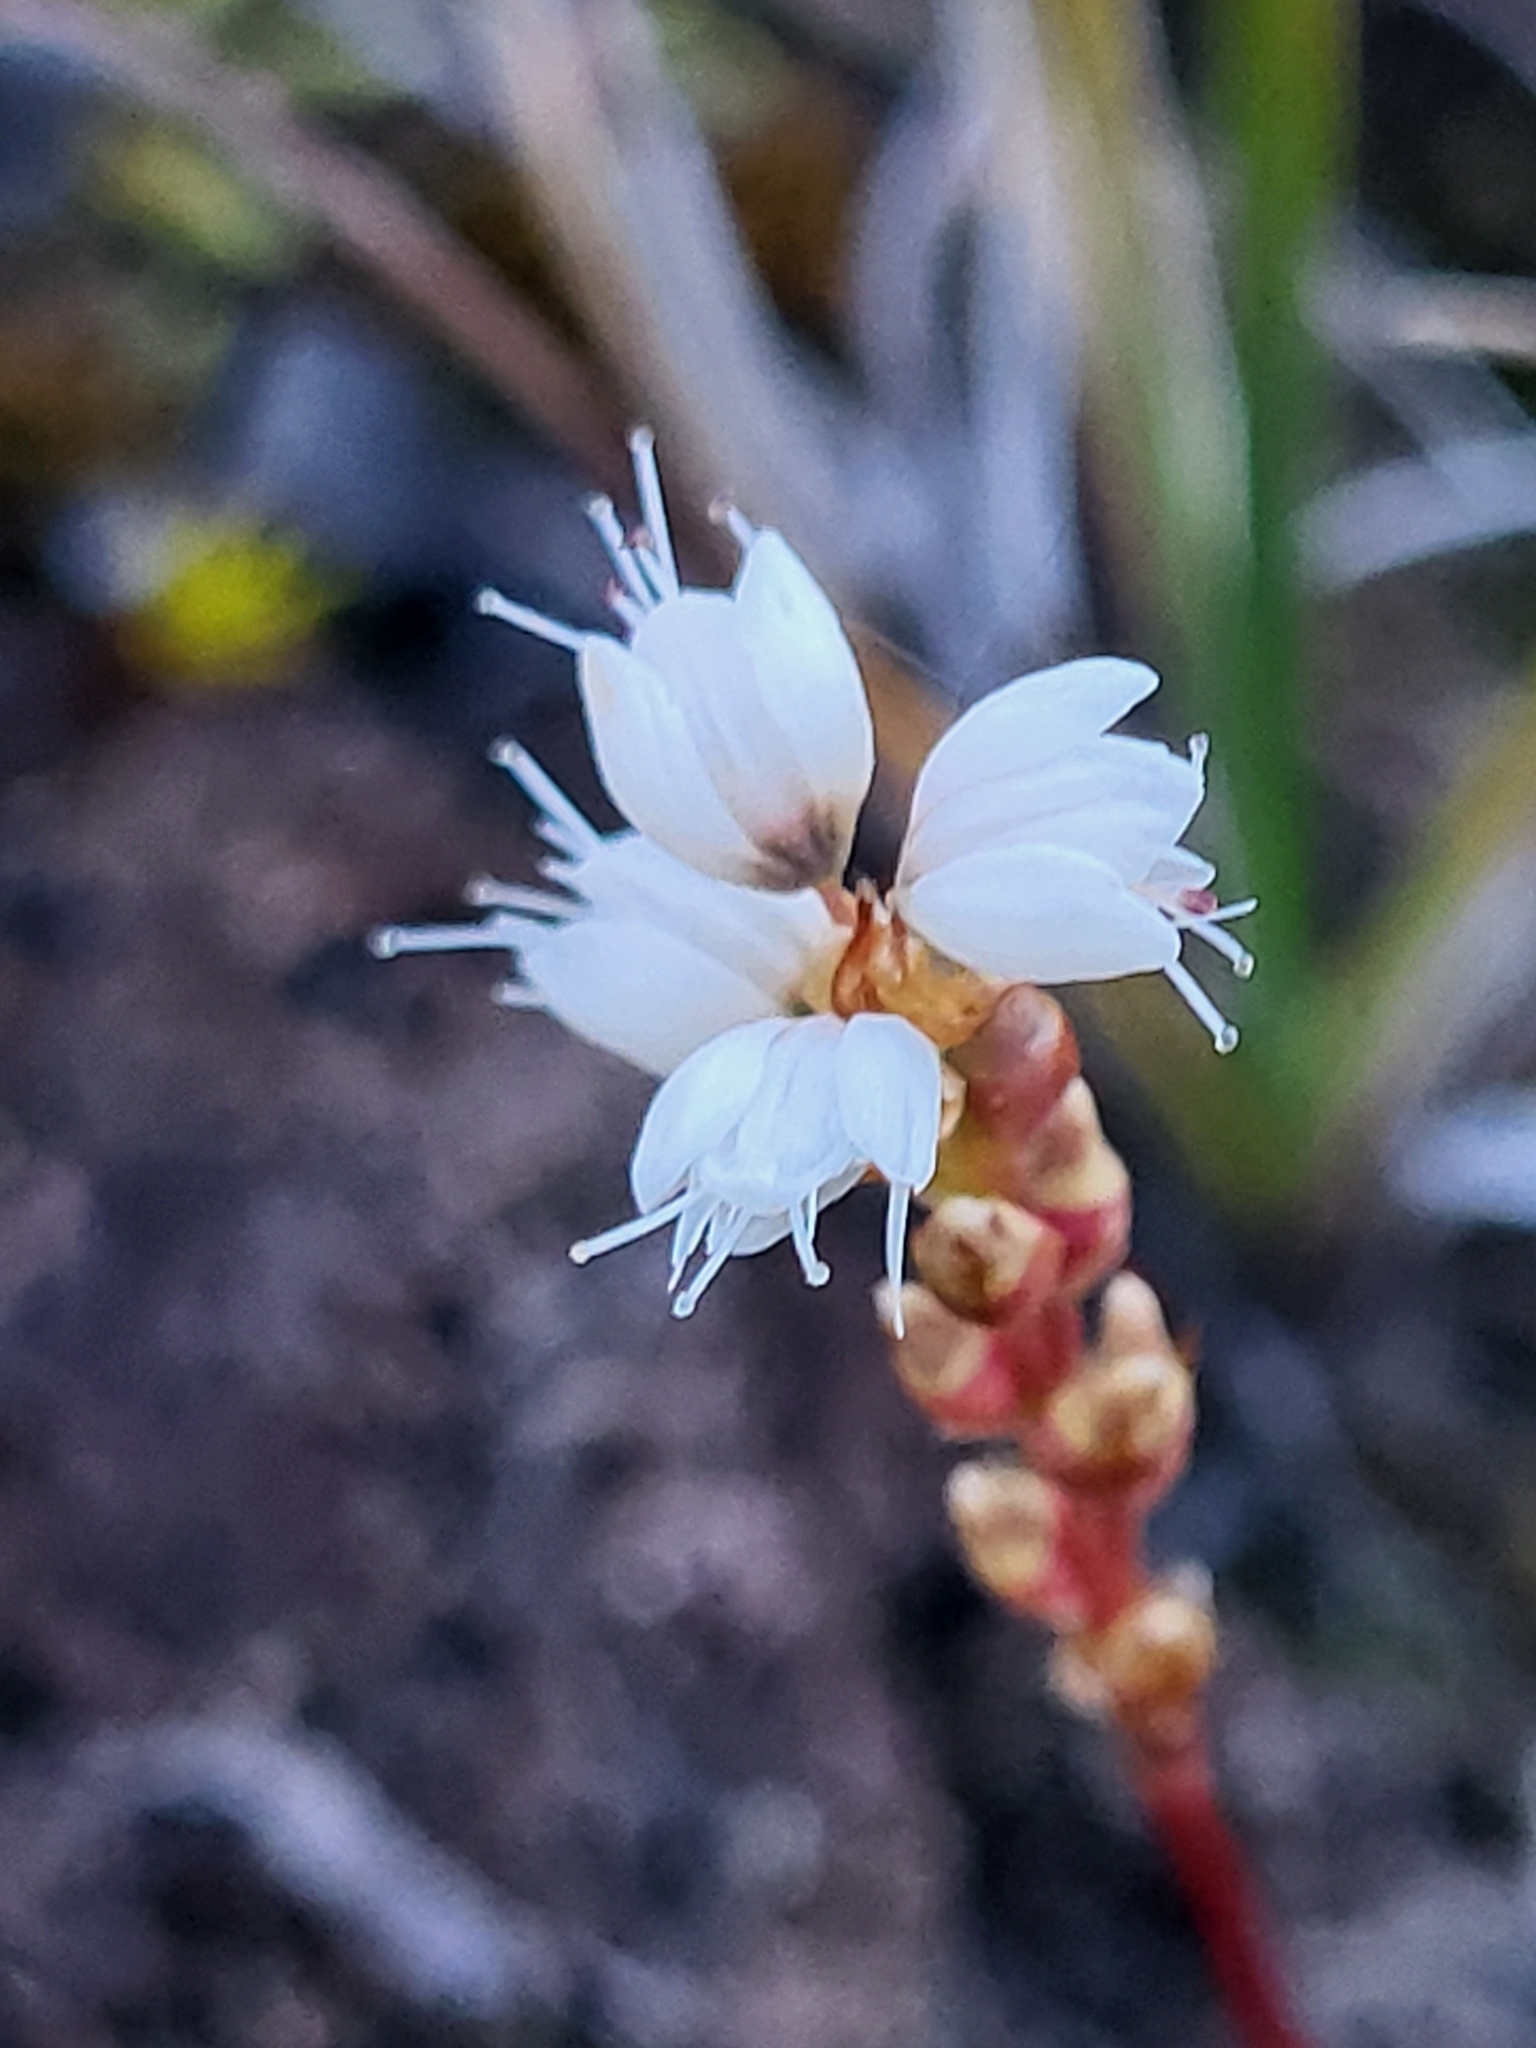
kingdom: Plantae
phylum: Tracheophyta
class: Magnoliopsida
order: Caryophyllales
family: Polygonaceae
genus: Bistorta
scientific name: Bistorta vivipara
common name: Alpine bistort
